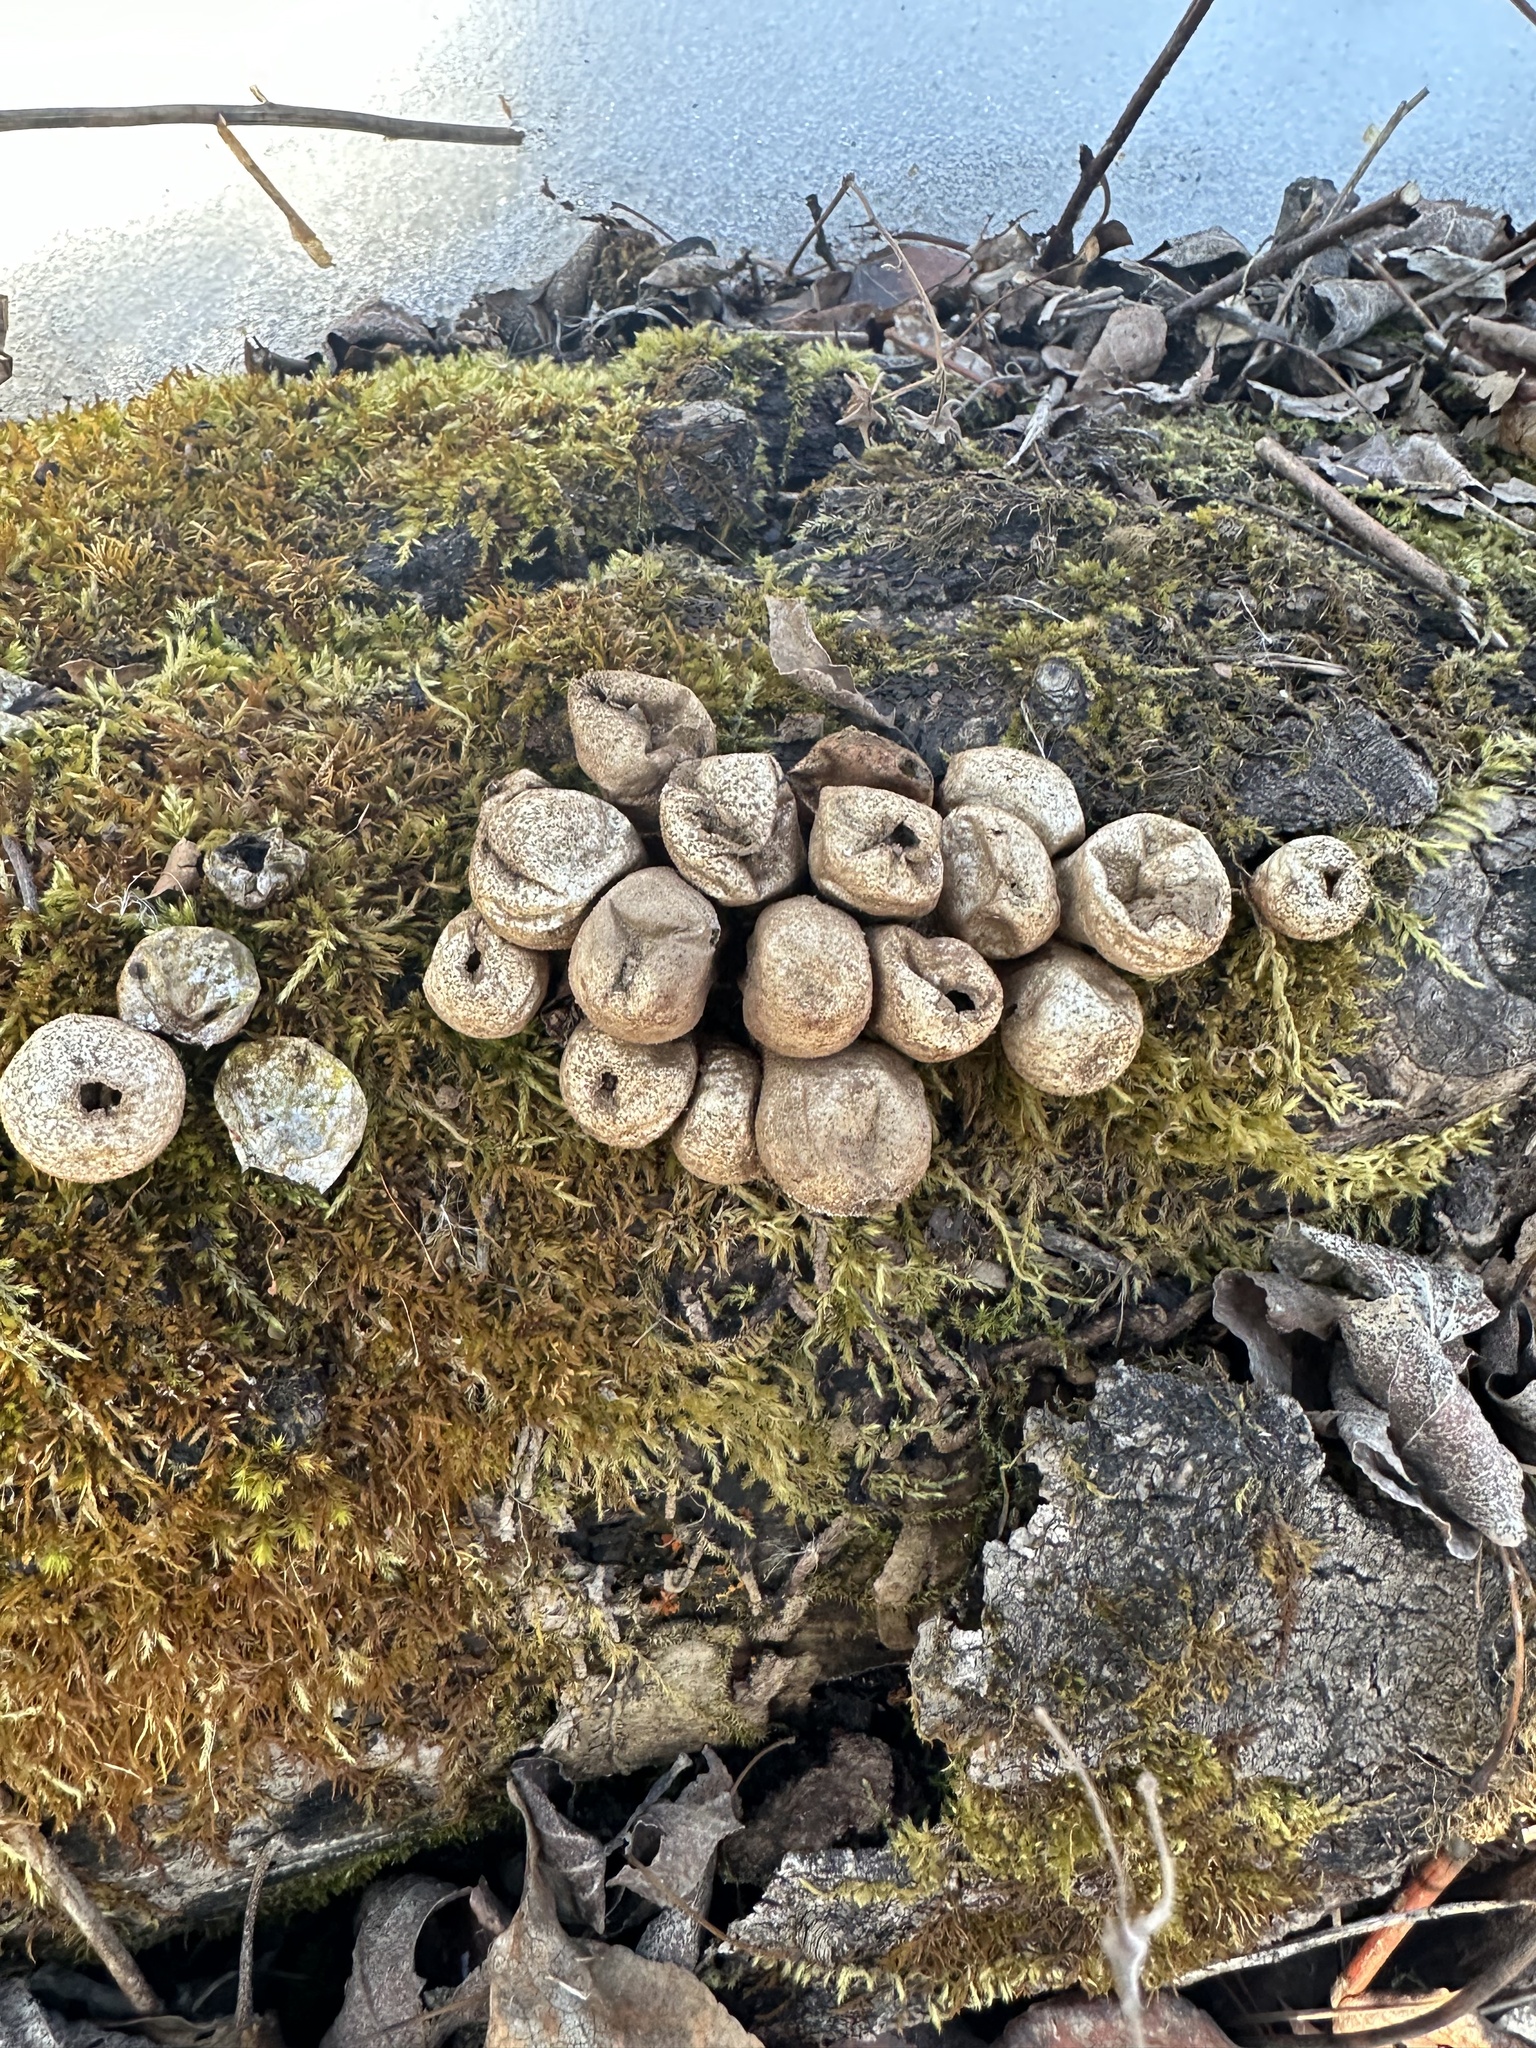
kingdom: Fungi
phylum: Basidiomycota
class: Agaricomycetes
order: Agaricales
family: Lycoperdaceae
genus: Apioperdon
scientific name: Apioperdon pyriforme
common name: Pear-shaped puffball
